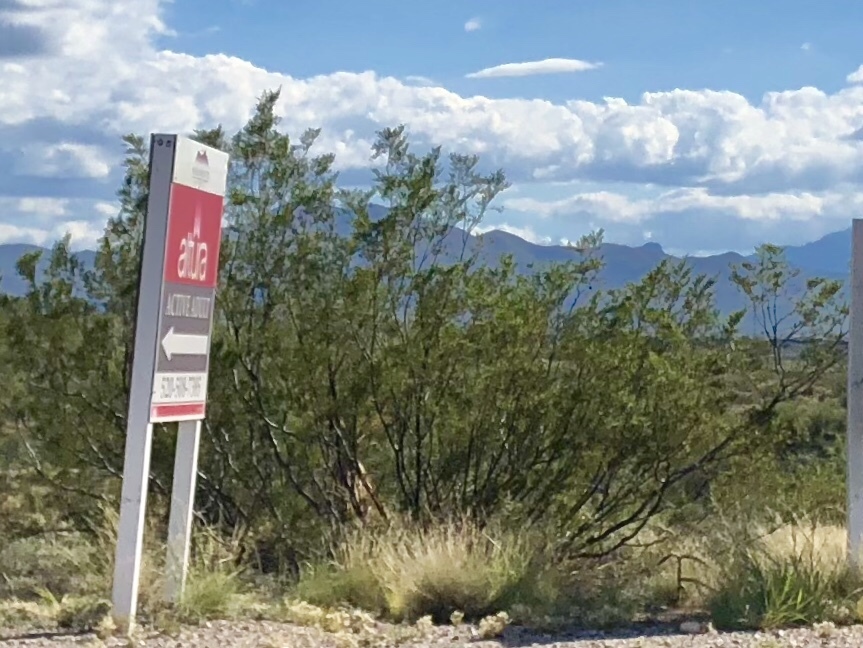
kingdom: Plantae
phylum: Tracheophyta
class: Magnoliopsida
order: Zygophyllales
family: Zygophyllaceae
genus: Larrea
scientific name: Larrea tridentata
